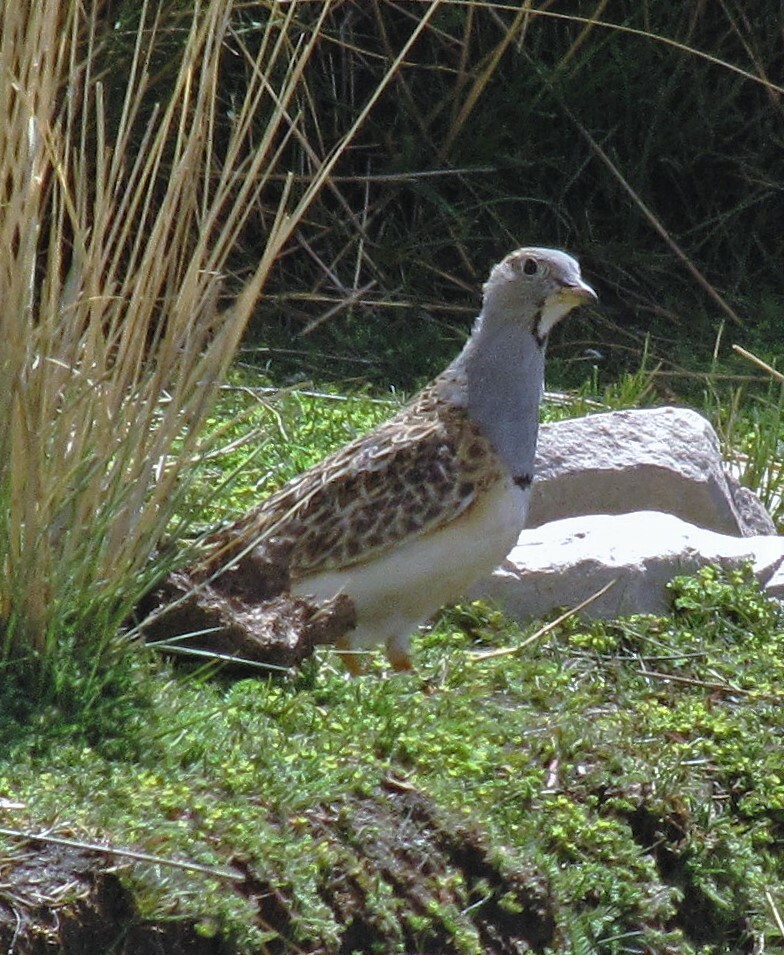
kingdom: Animalia
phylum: Chordata
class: Aves
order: Charadriiformes
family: Thinocoridae
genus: Thinocorus
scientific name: Thinocorus orbignyianus
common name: Grey-breasted seedsnipe
